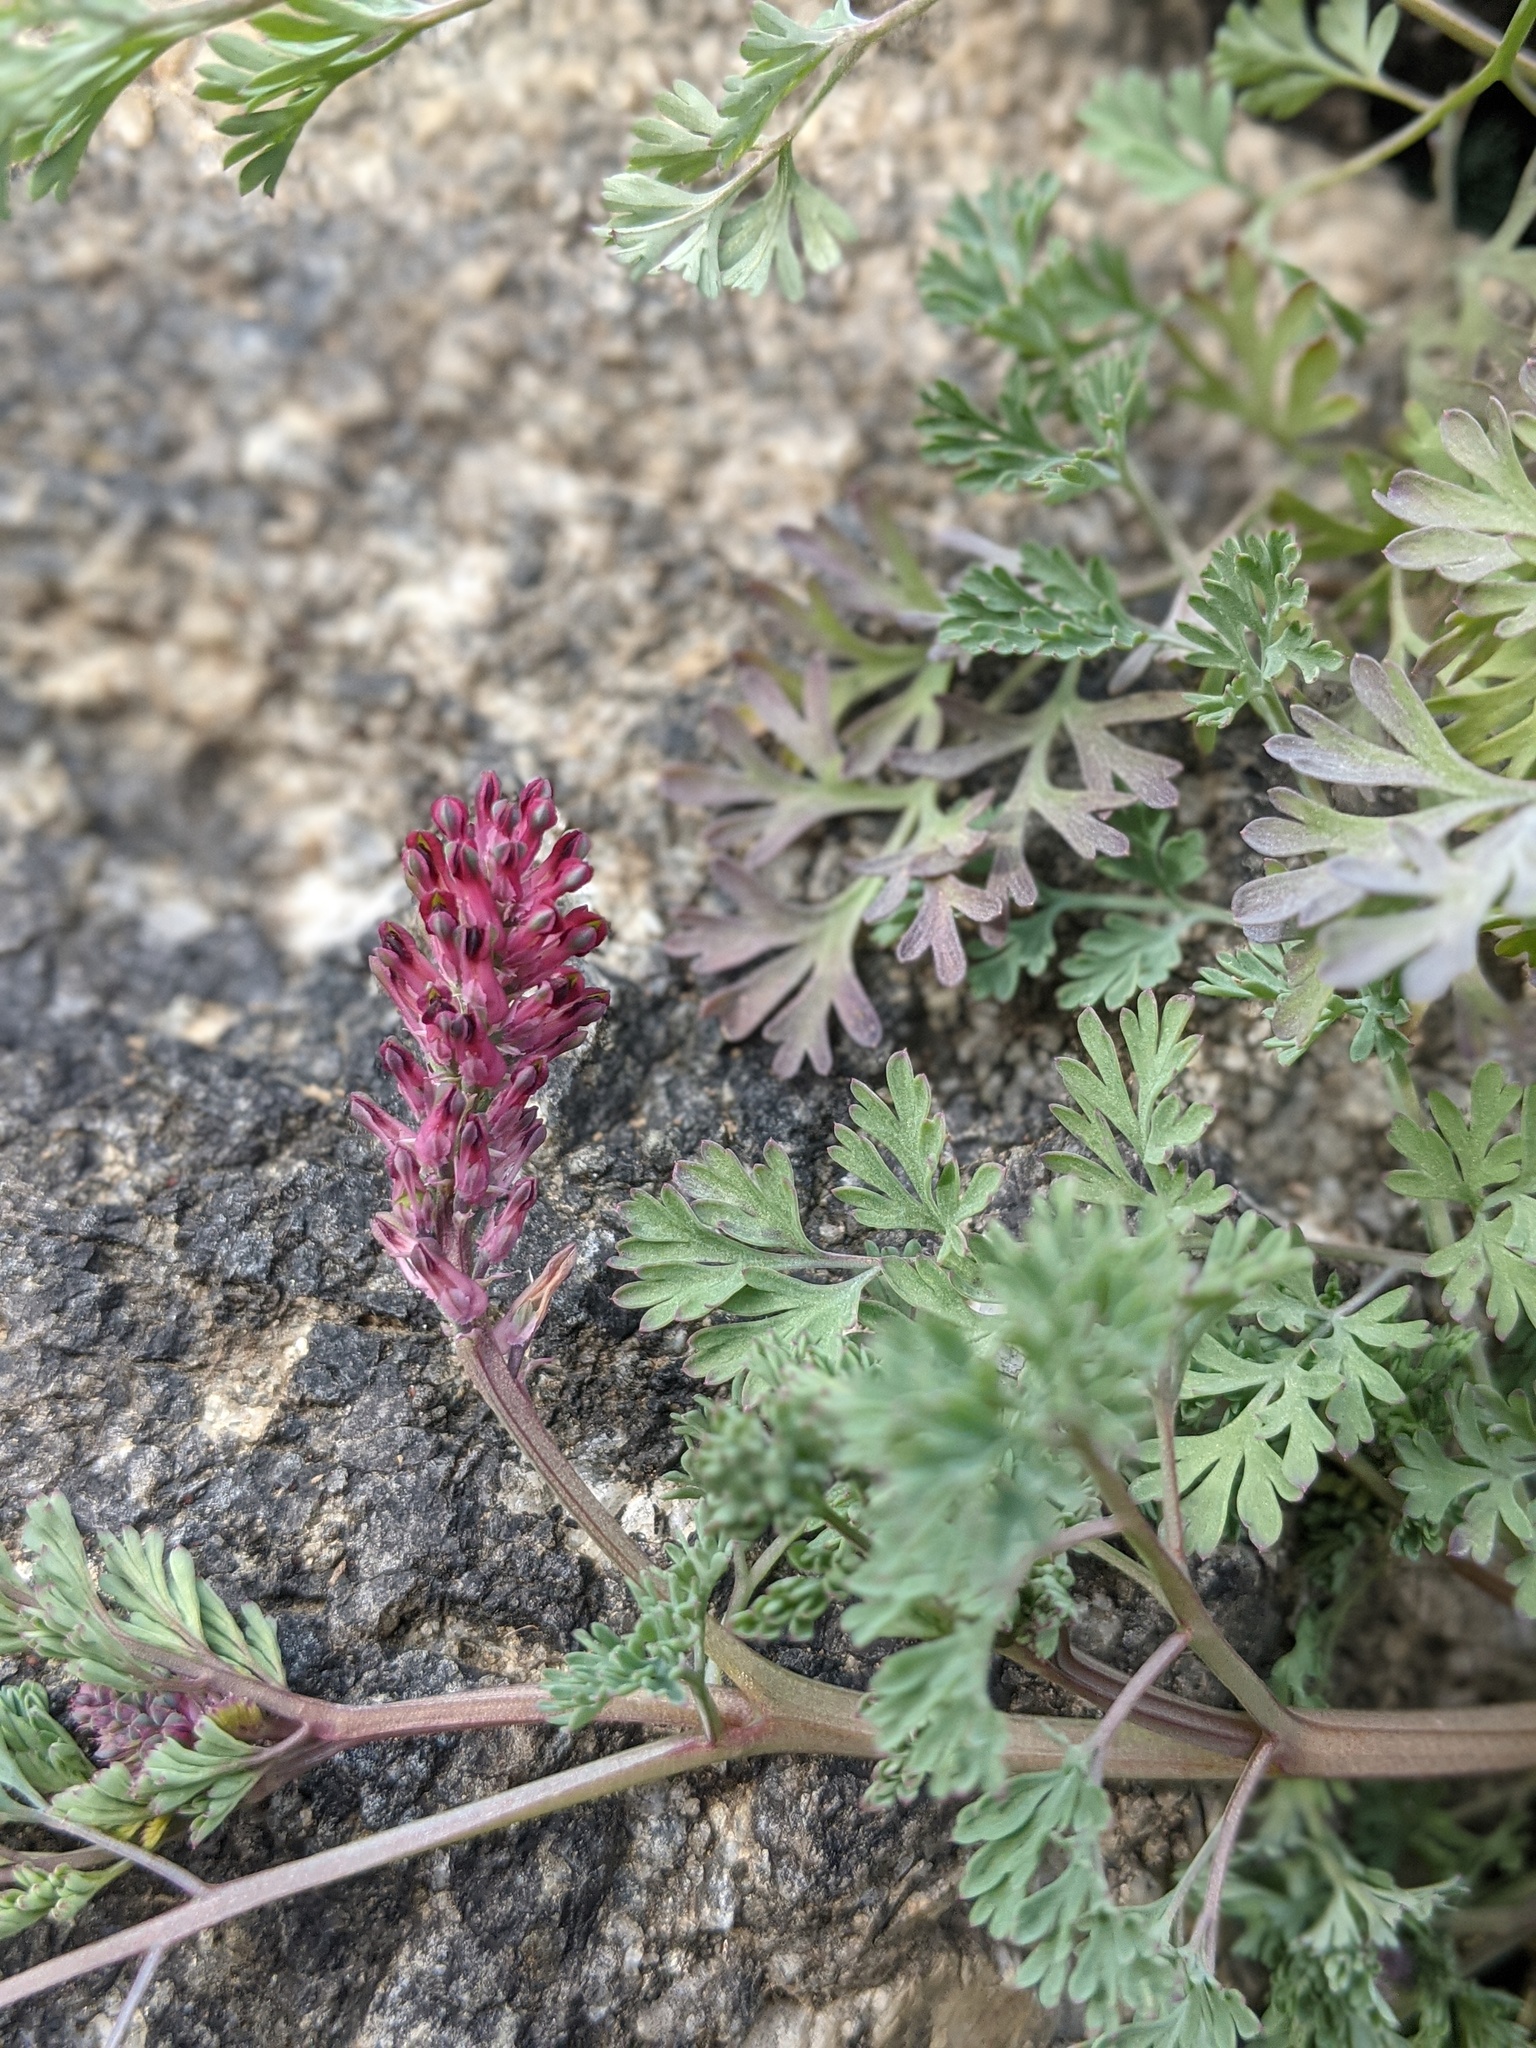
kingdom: Plantae
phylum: Tracheophyta
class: Magnoliopsida
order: Ranunculales
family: Papaveraceae
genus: Fumaria
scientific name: Fumaria officinalis
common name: Common fumitory
